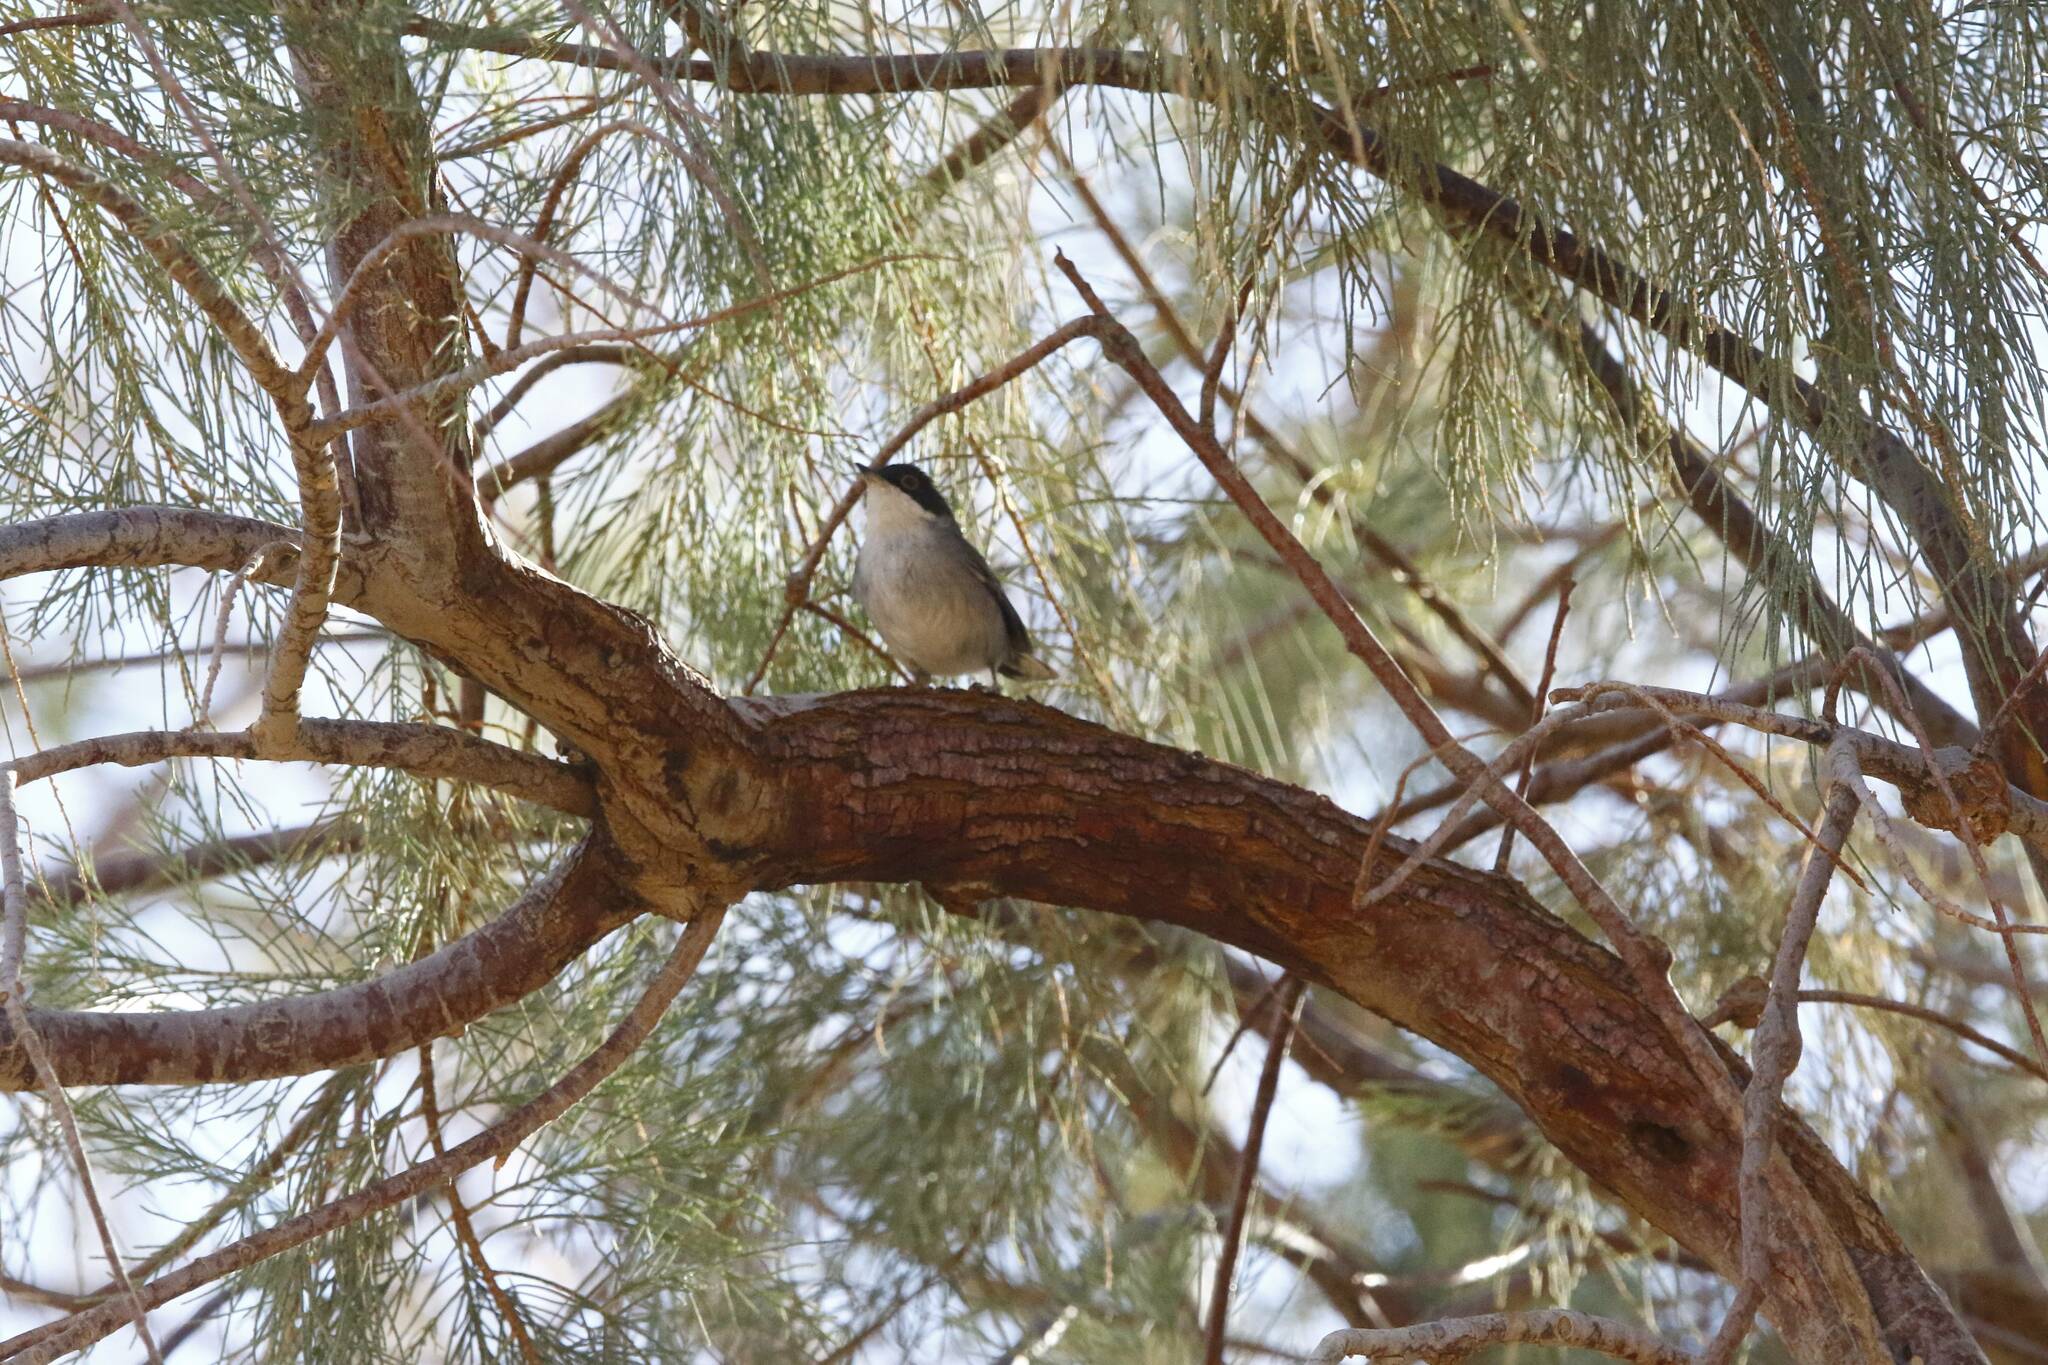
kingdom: Animalia
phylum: Chordata
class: Aves
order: Passeriformes
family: Sylviidae
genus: Curruca
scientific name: Curruca melanocephala
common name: Sardinian warbler
